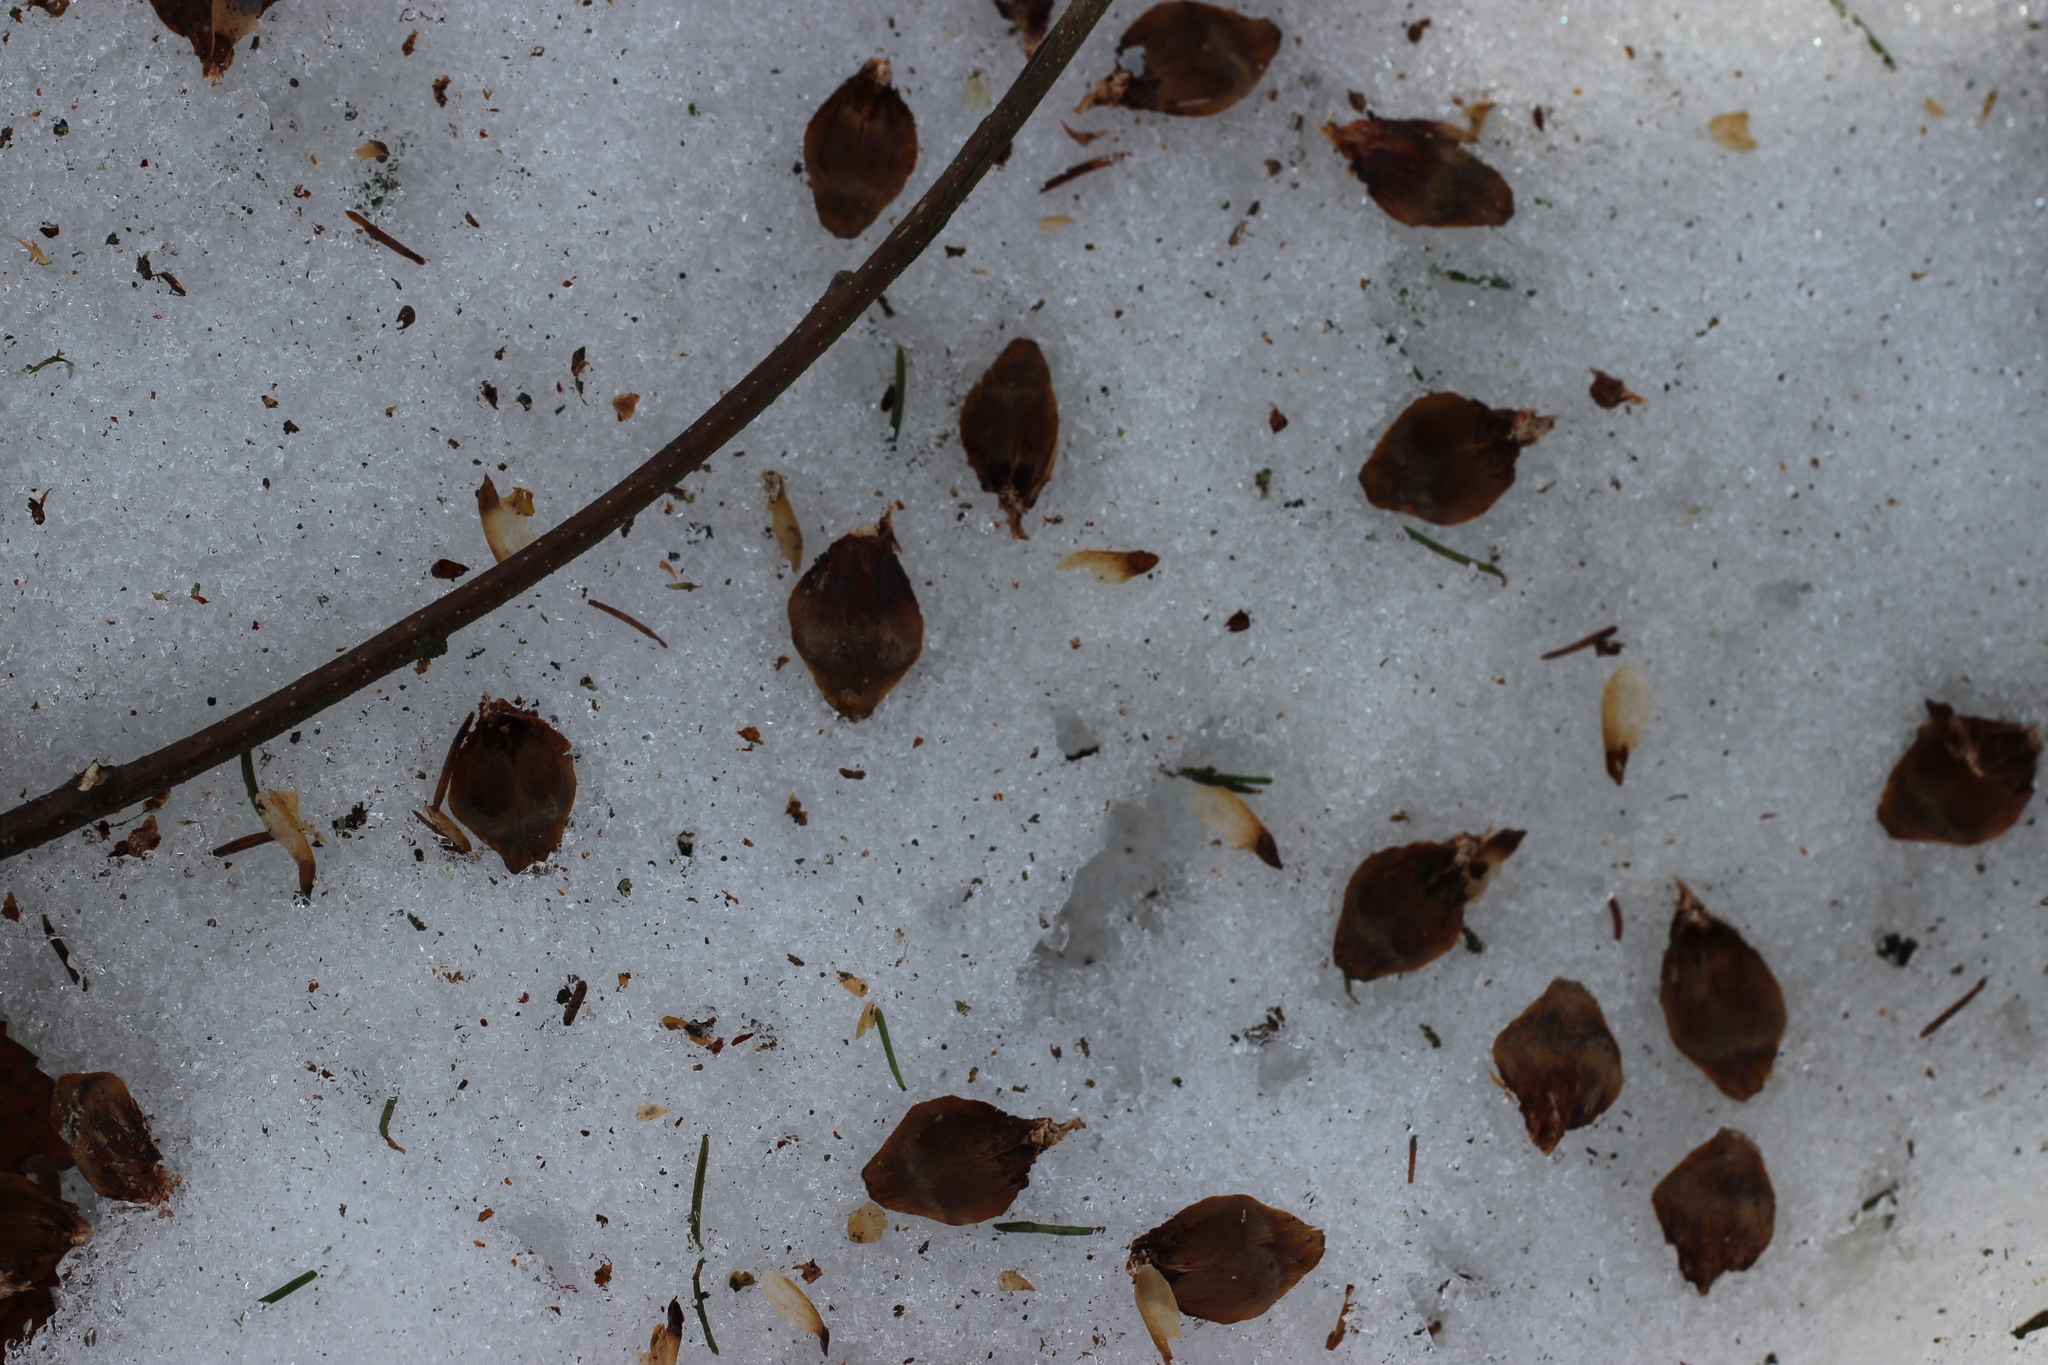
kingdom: Animalia
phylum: Chordata
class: Mammalia
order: Rodentia
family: Sciuridae
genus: Sciurus
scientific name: Sciurus vulgaris
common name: Eurasian red squirrel
